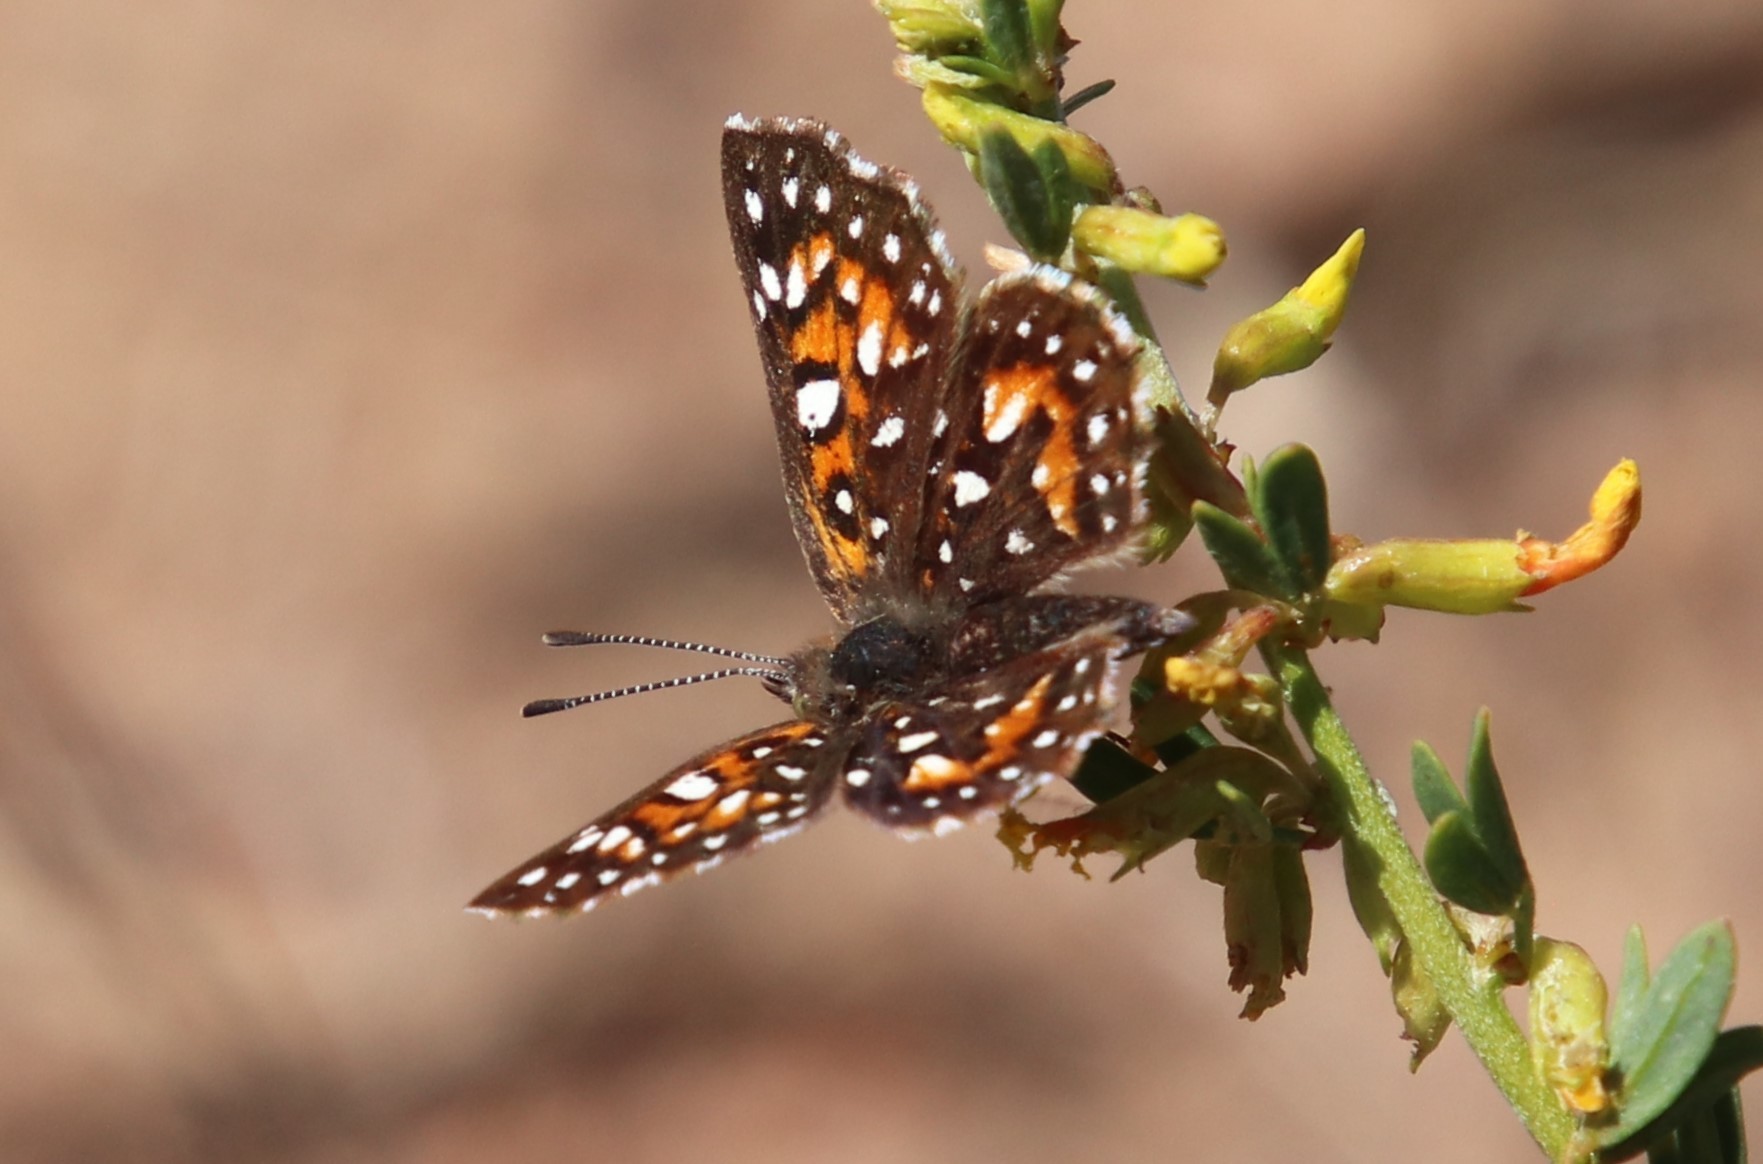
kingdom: Animalia
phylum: Arthropoda
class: Insecta
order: Lepidoptera
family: Riodinidae
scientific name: Riodinidae
